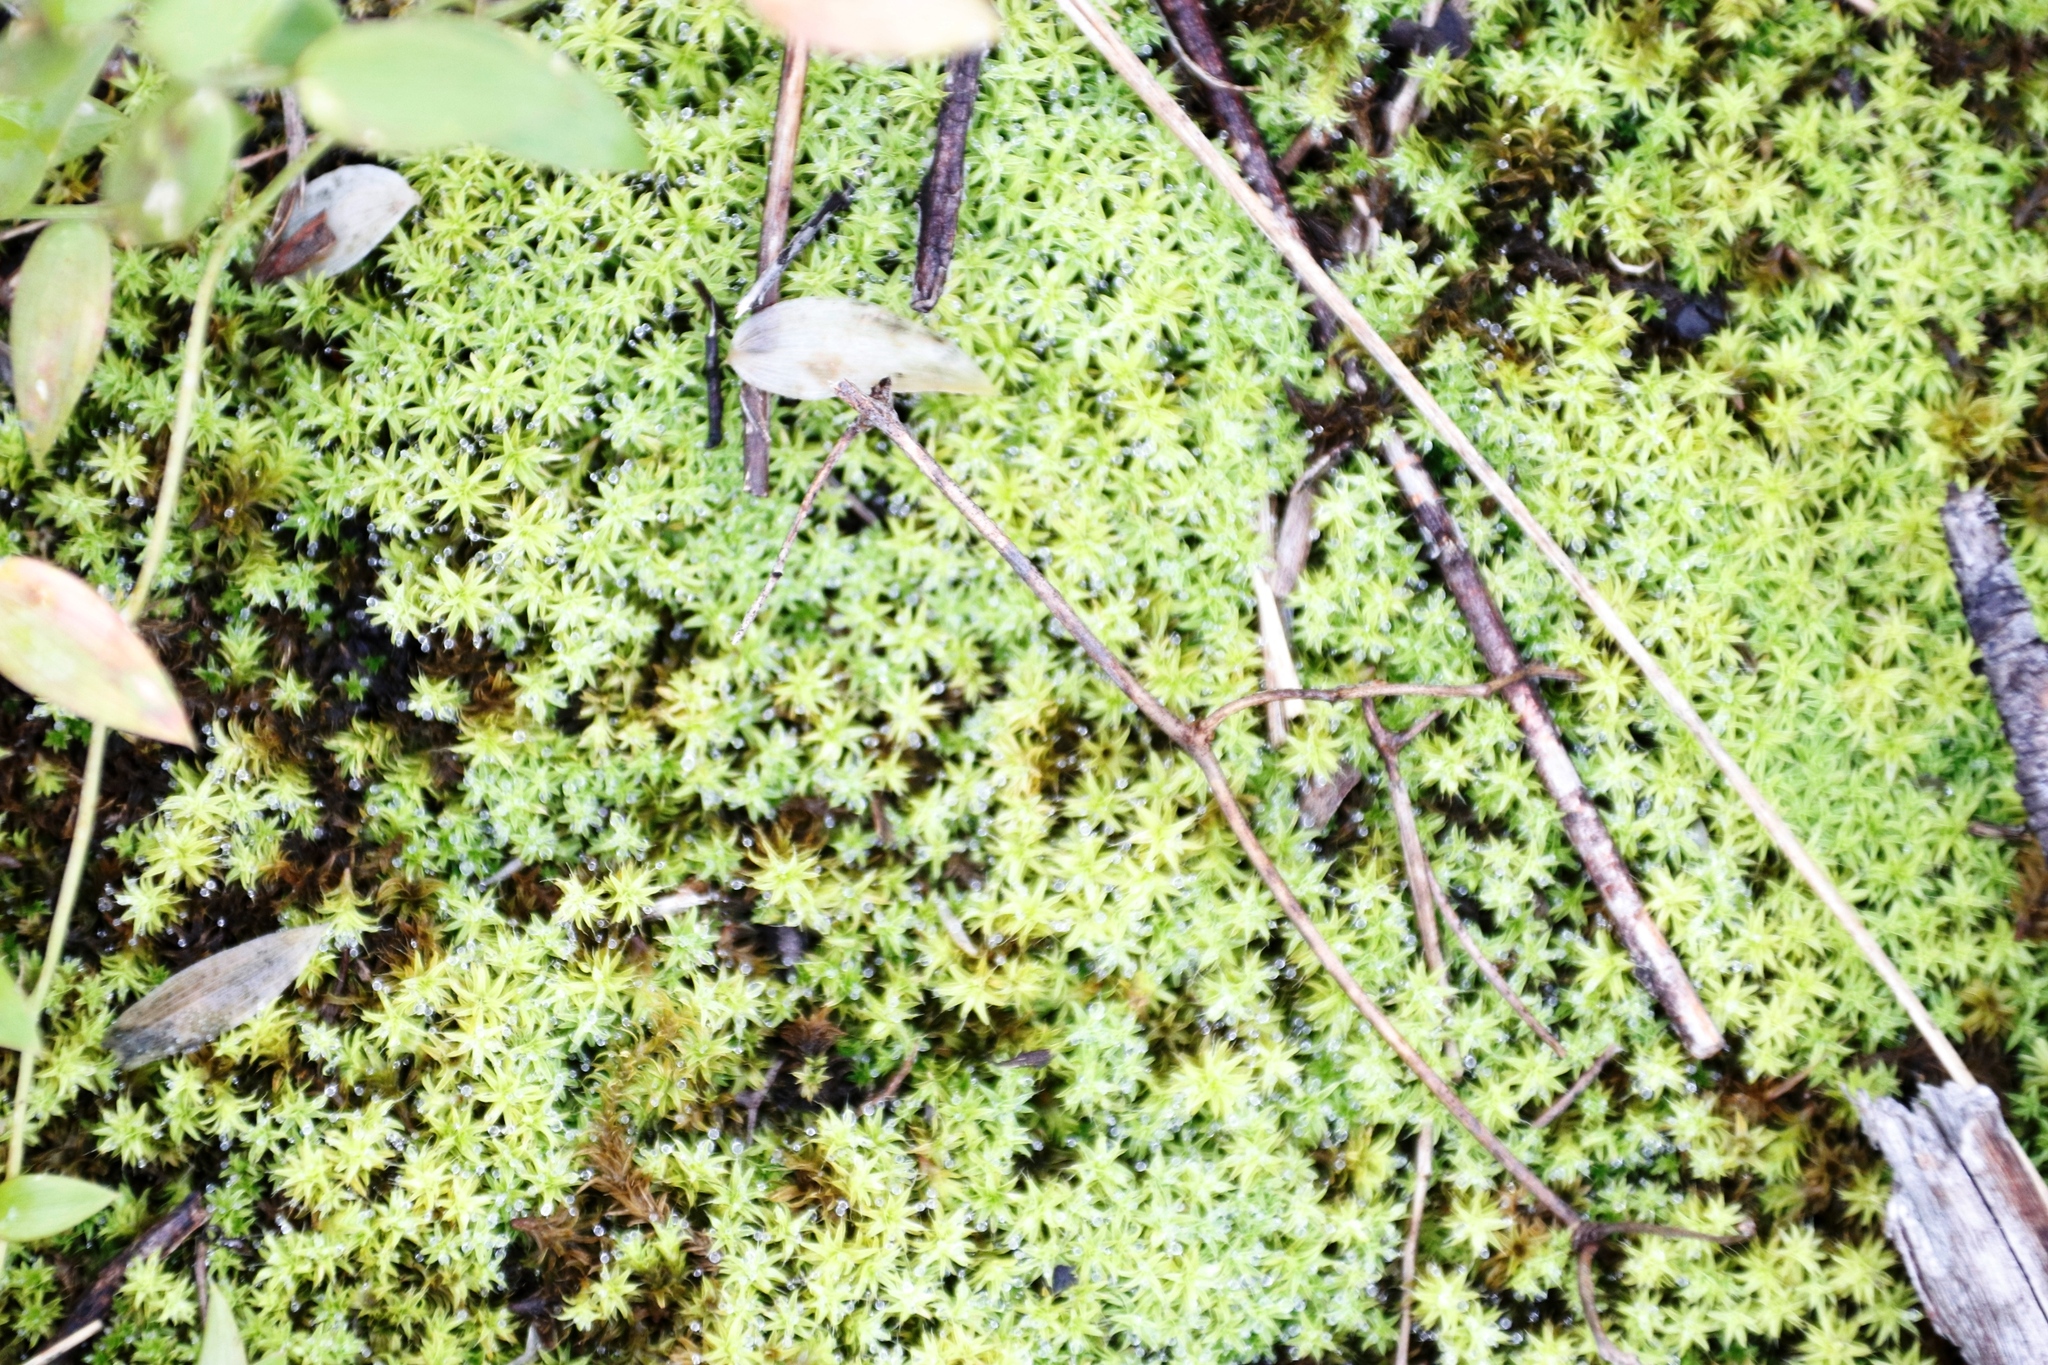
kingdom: Plantae
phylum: Bryophyta
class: Bryopsida
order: Pottiales
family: Pottiaceae
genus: Pseudocrossidium
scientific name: Pseudocrossidium crinitum
